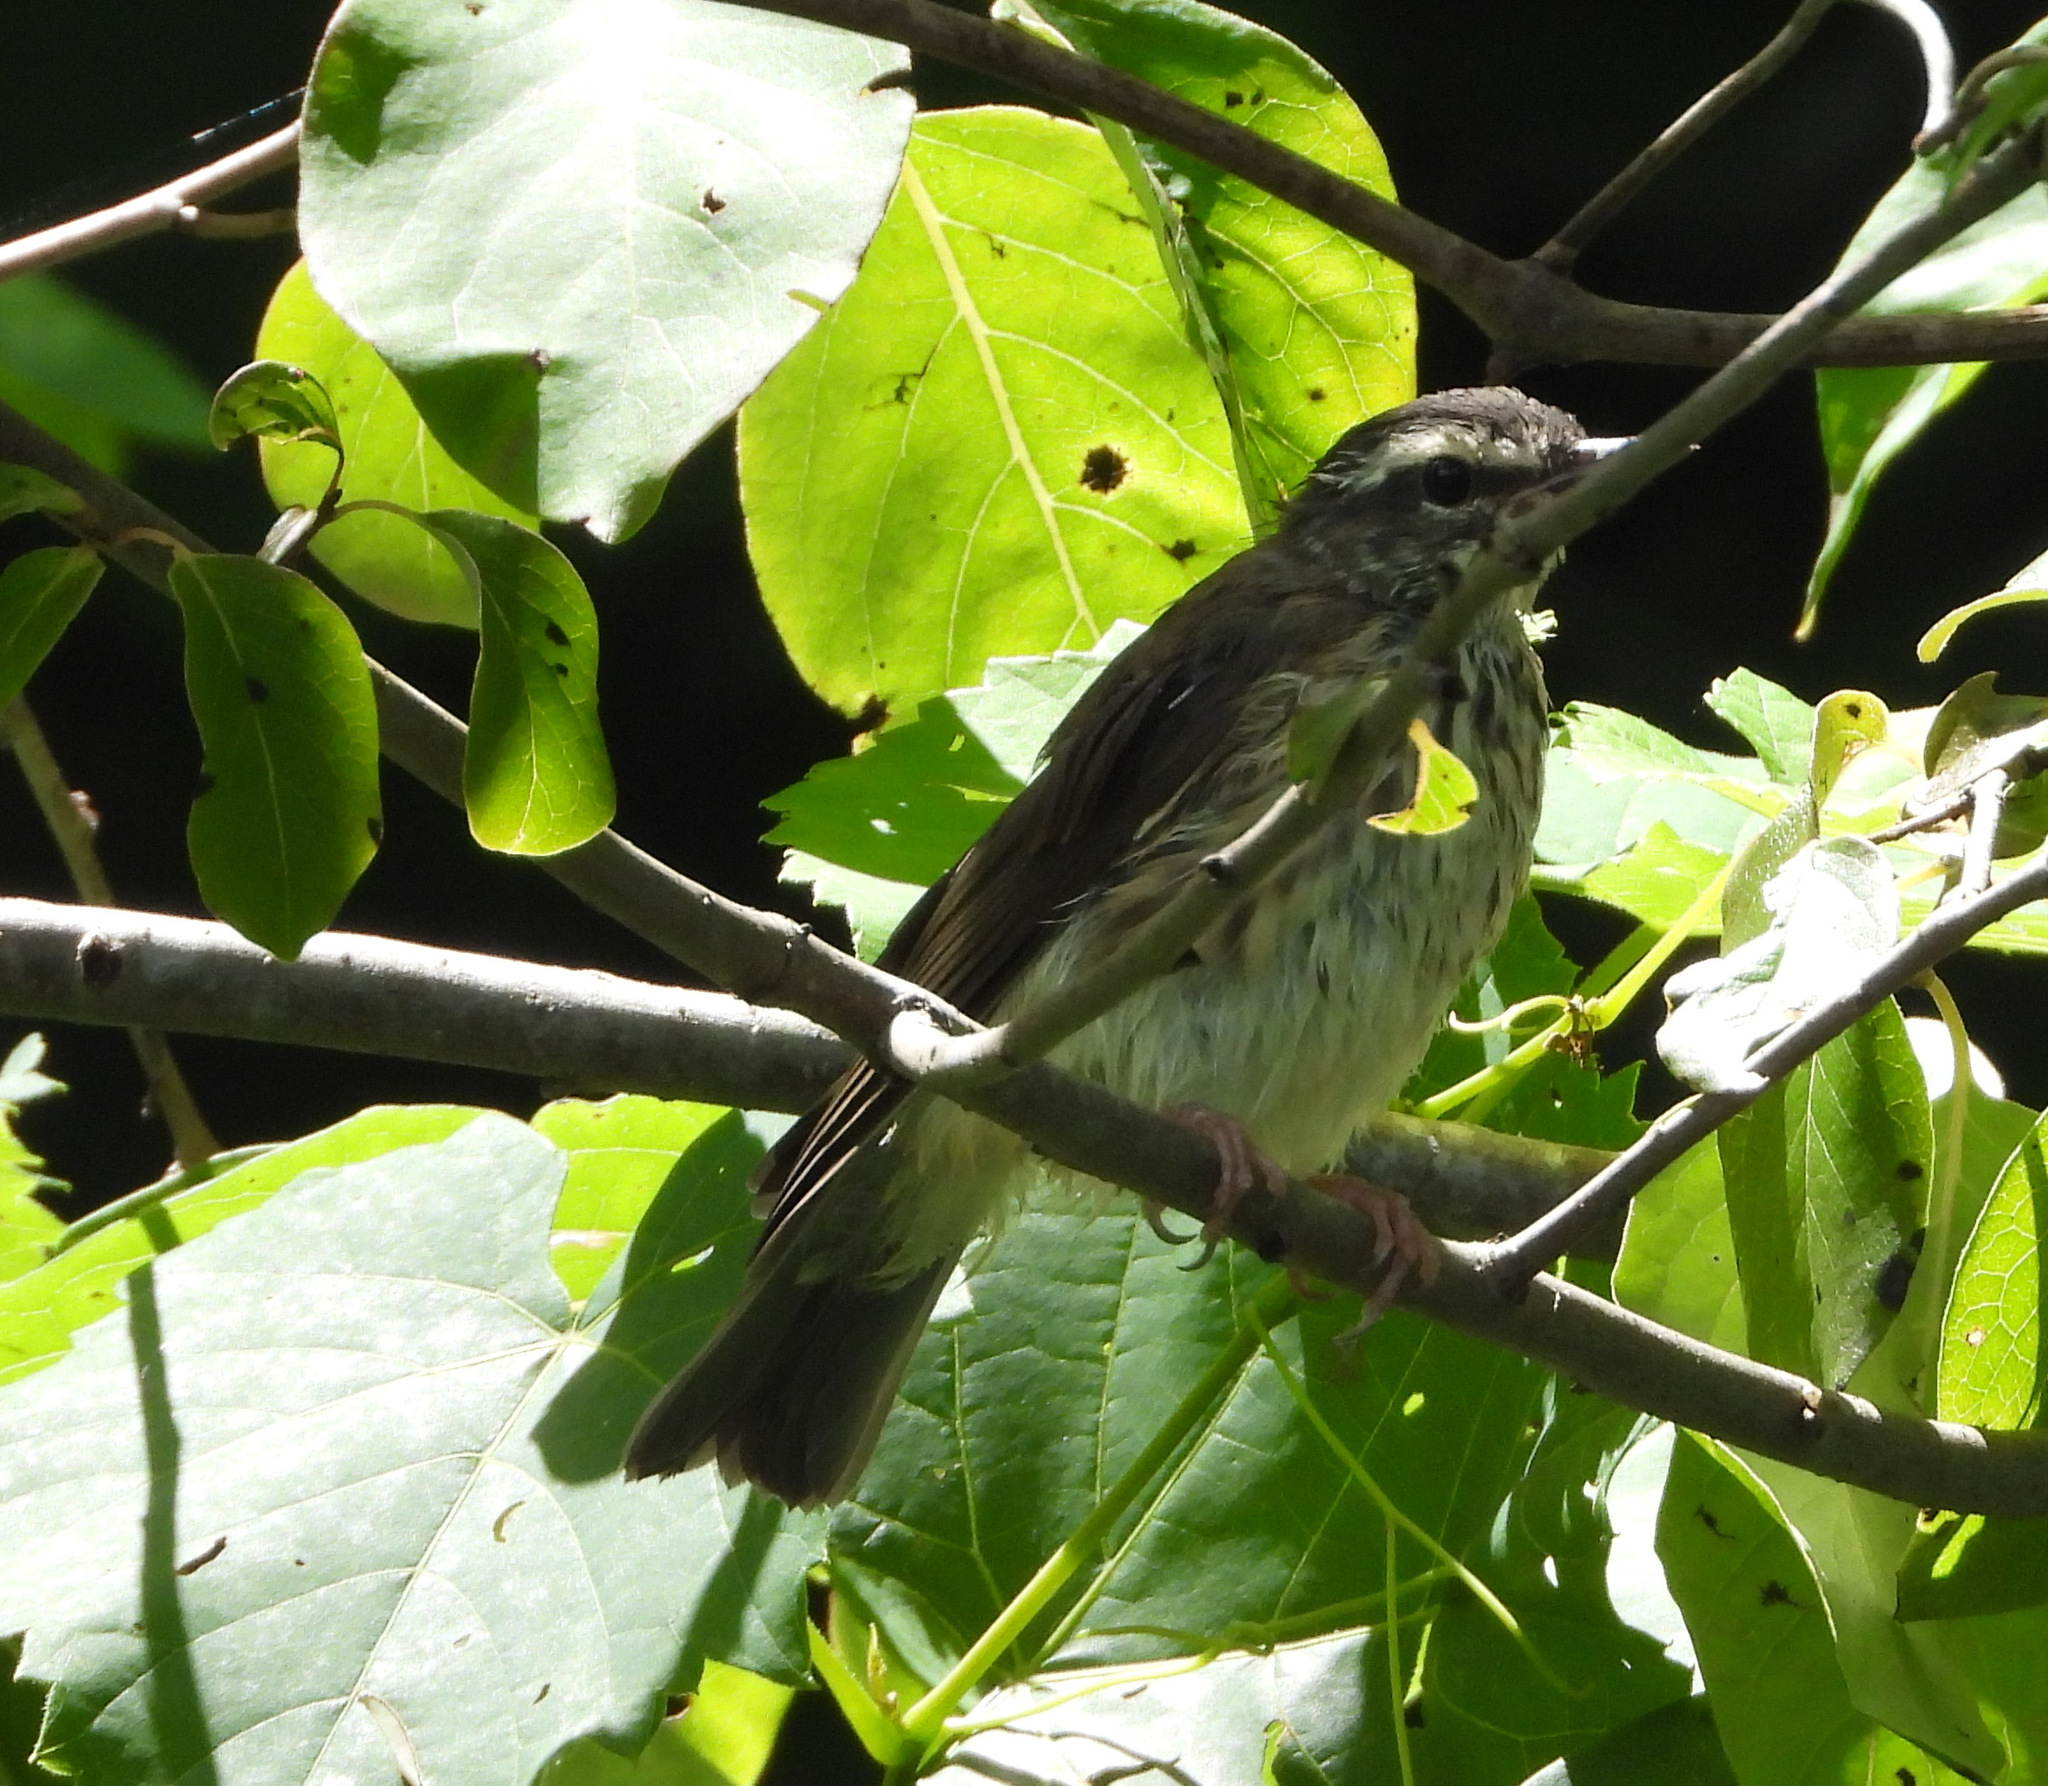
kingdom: Animalia
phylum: Chordata
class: Aves
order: Passeriformes
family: Parulidae
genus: Parkesia
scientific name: Parkesia motacilla
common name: Louisiana waterthrush
